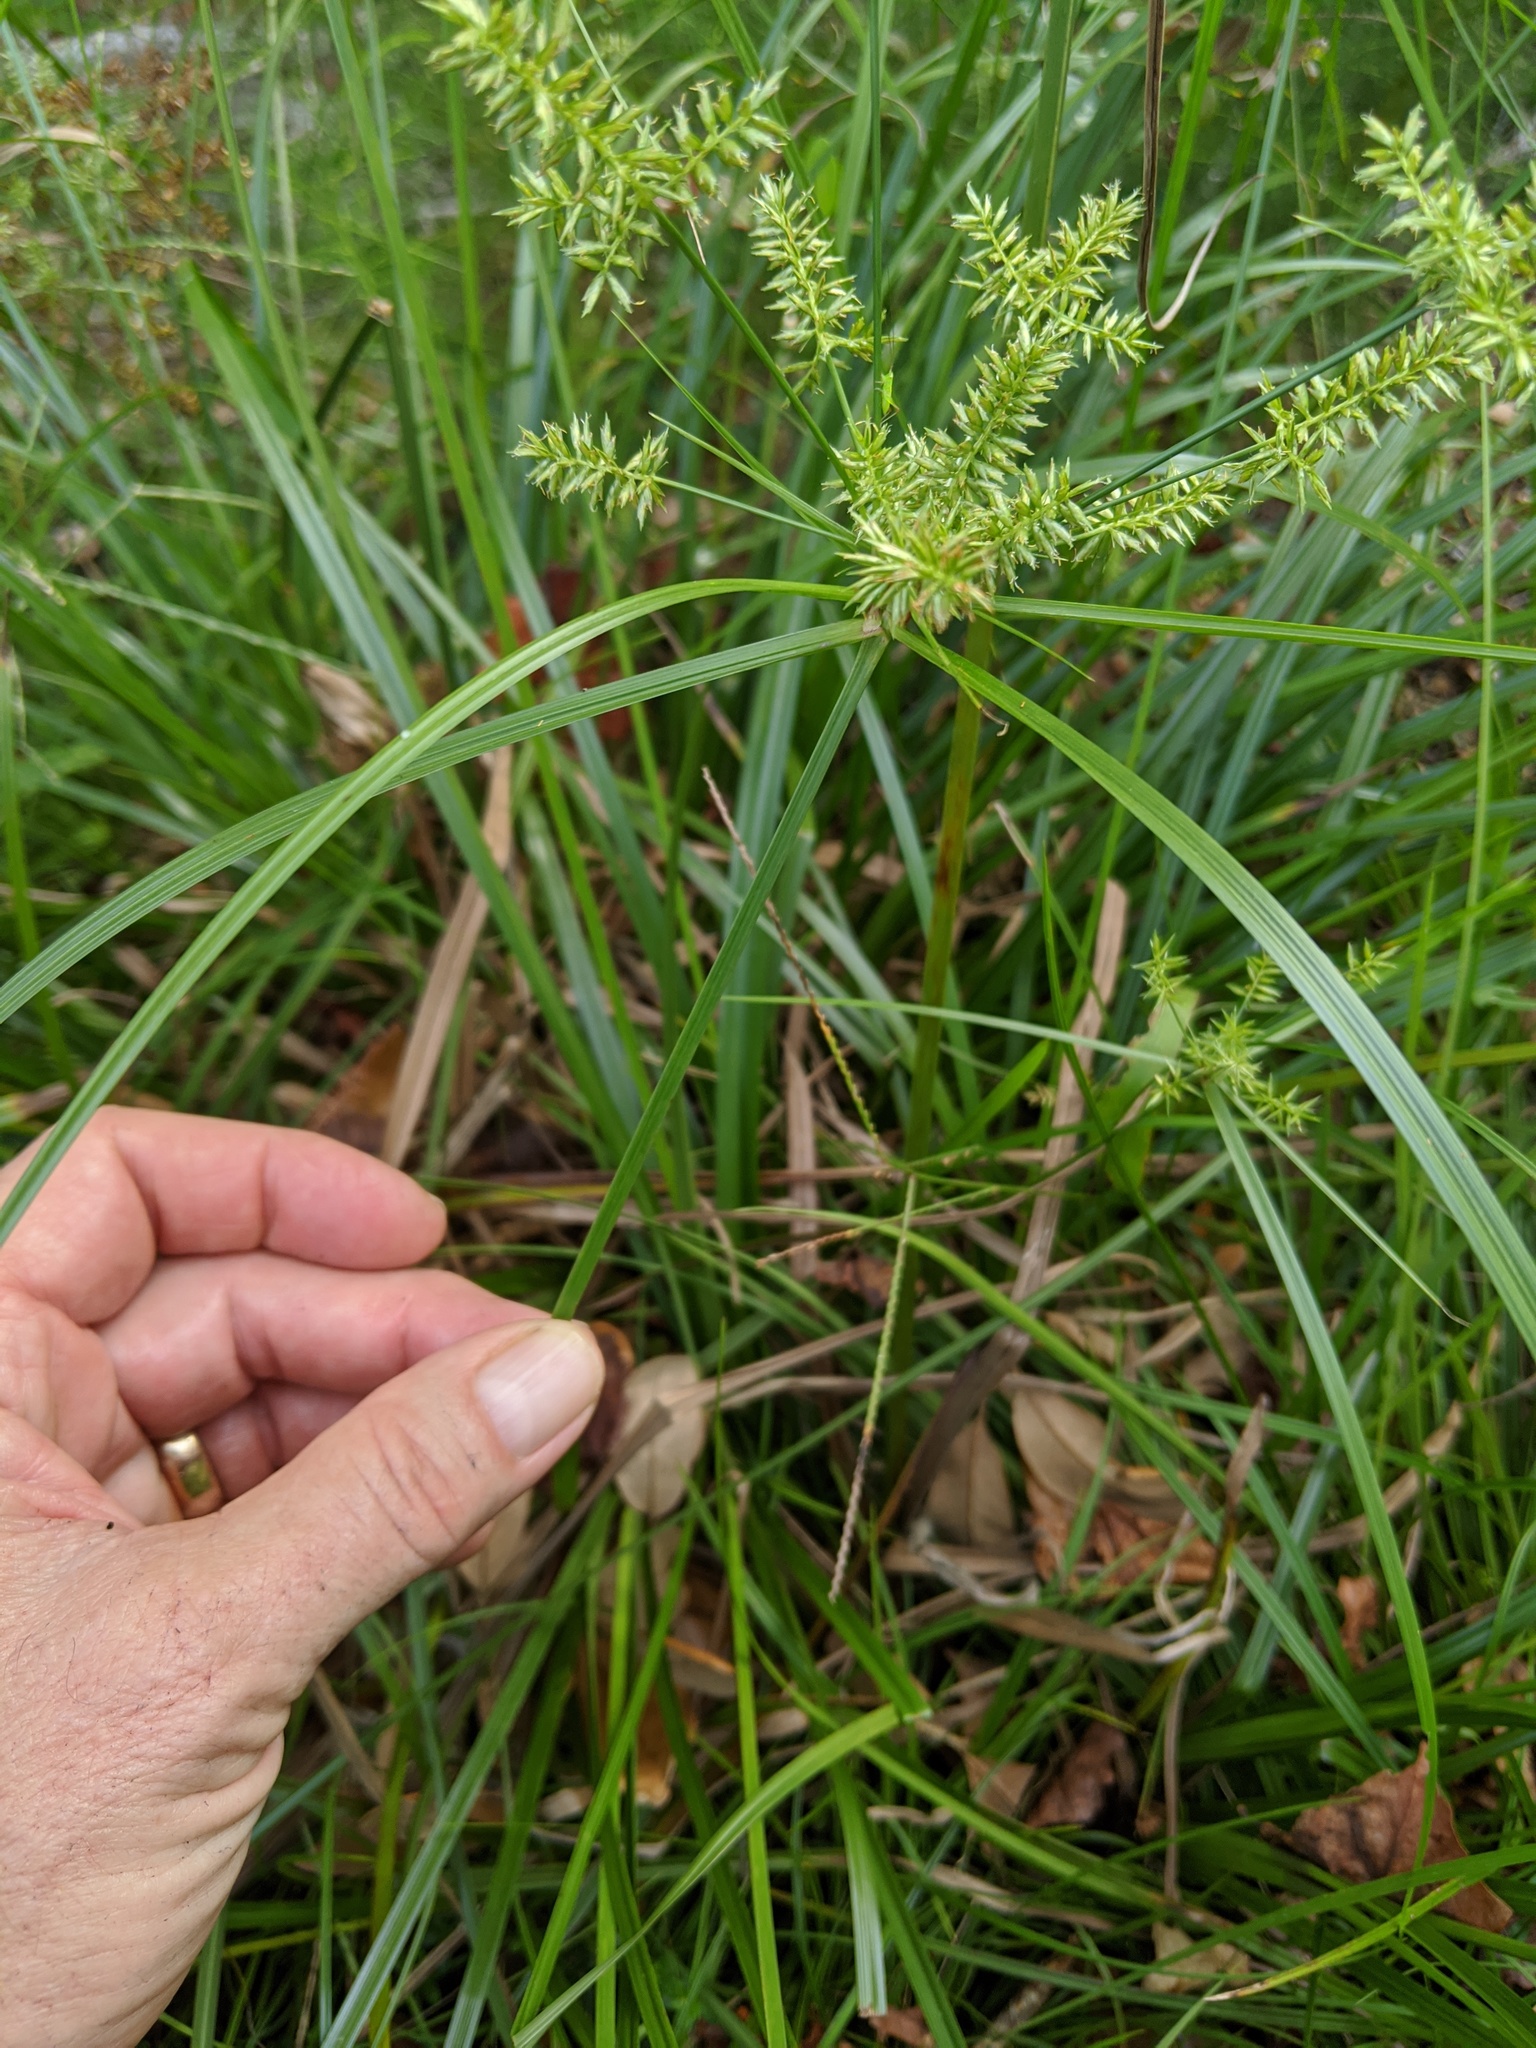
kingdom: Plantae
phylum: Tracheophyta
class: Liliopsida
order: Poales
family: Cyperaceae
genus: Cyperus
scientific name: Cyperus tetragonus
